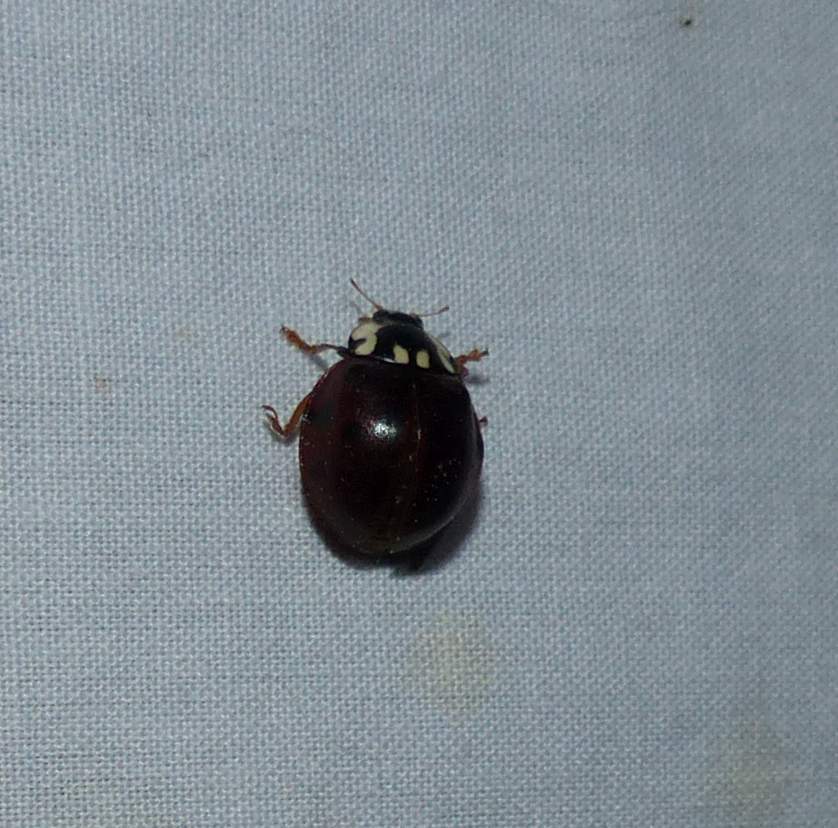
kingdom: Animalia
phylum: Arthropoda
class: Insecta
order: Coleoptera
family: Coccinellidae
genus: Anatis
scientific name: Anatis labiculata
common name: Fifteen-spotted lady beetle
